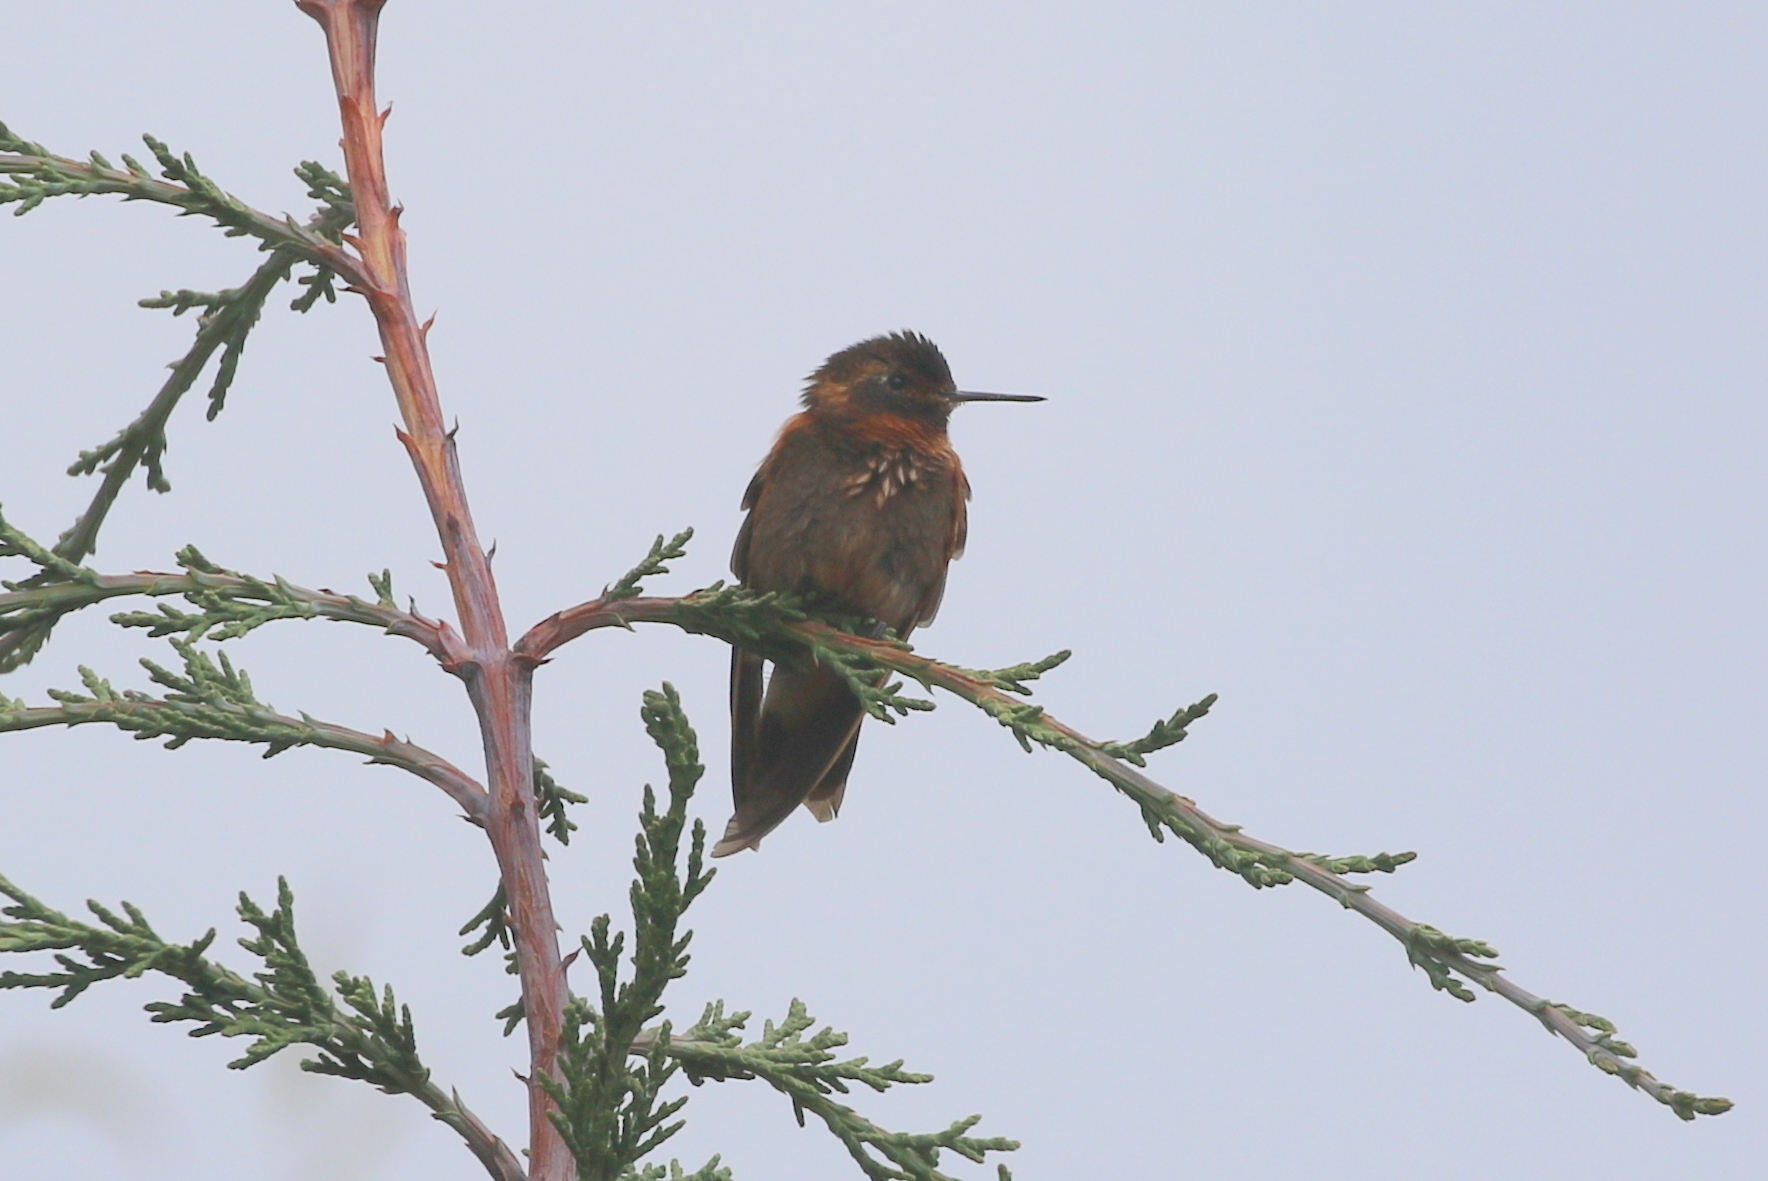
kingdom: Animalia
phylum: Chordata
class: Aves
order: Apodiformes
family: Trochilidae
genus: Aglaeactis
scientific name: Aglaeactis cupripennis
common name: Shining sunbeam
